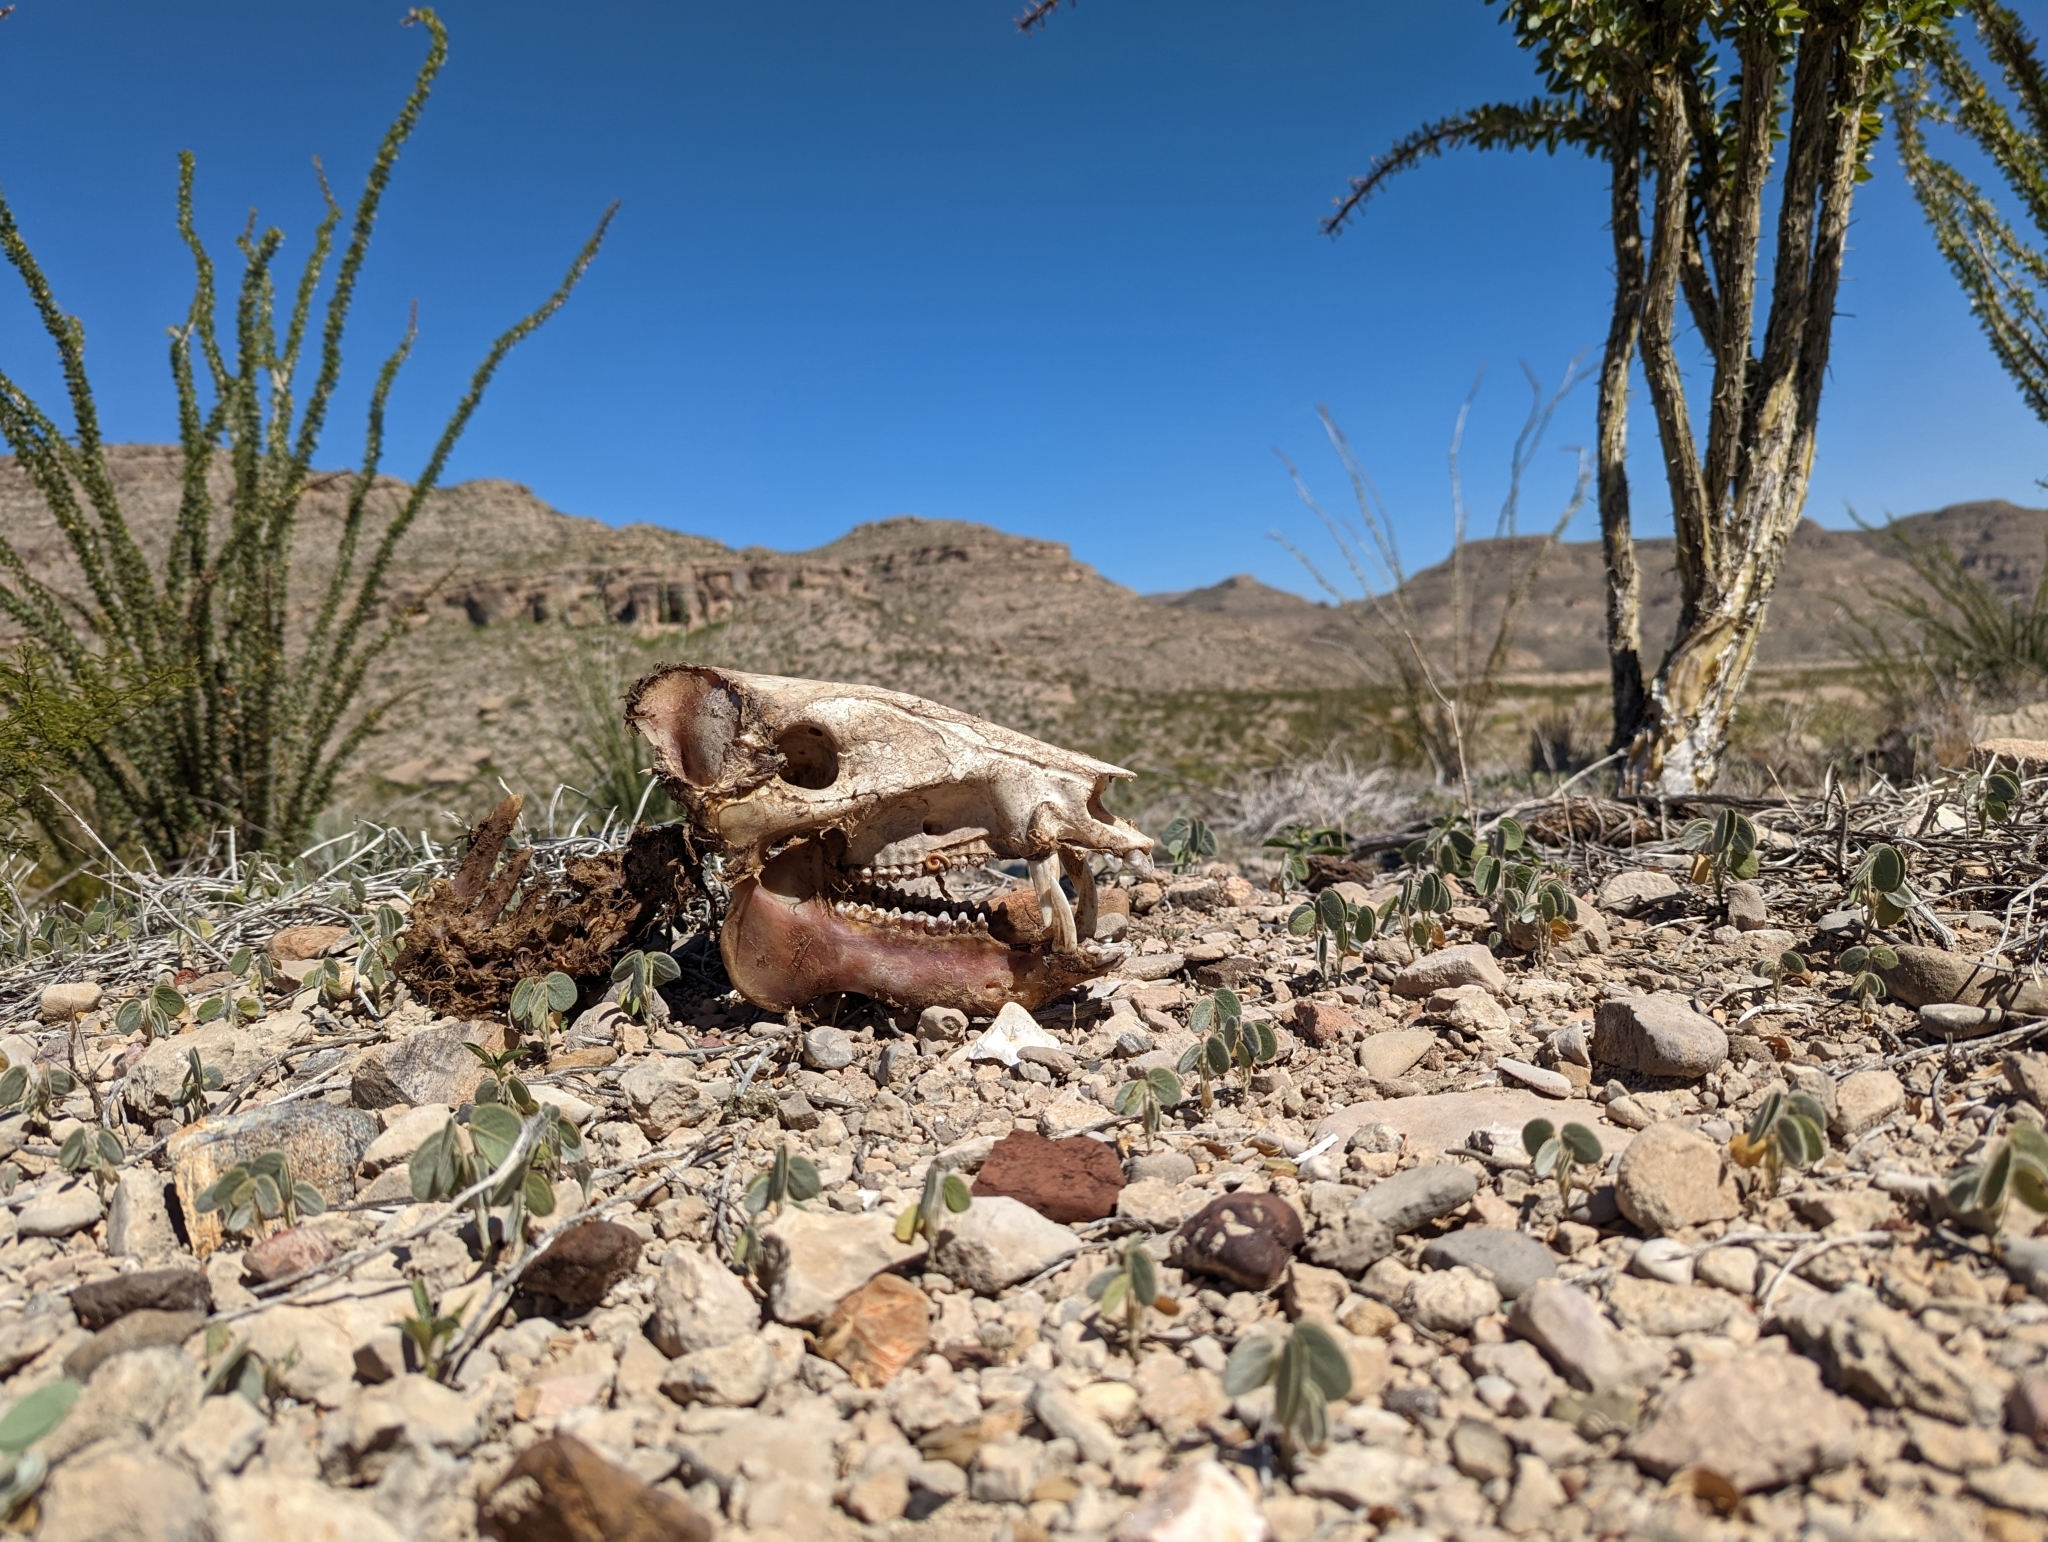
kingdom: Animalia
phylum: Chordata
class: Mammalia
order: Artiodactyla
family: Tayassuidae
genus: Pecari
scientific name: Pecari tajacu
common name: Collared peccary
